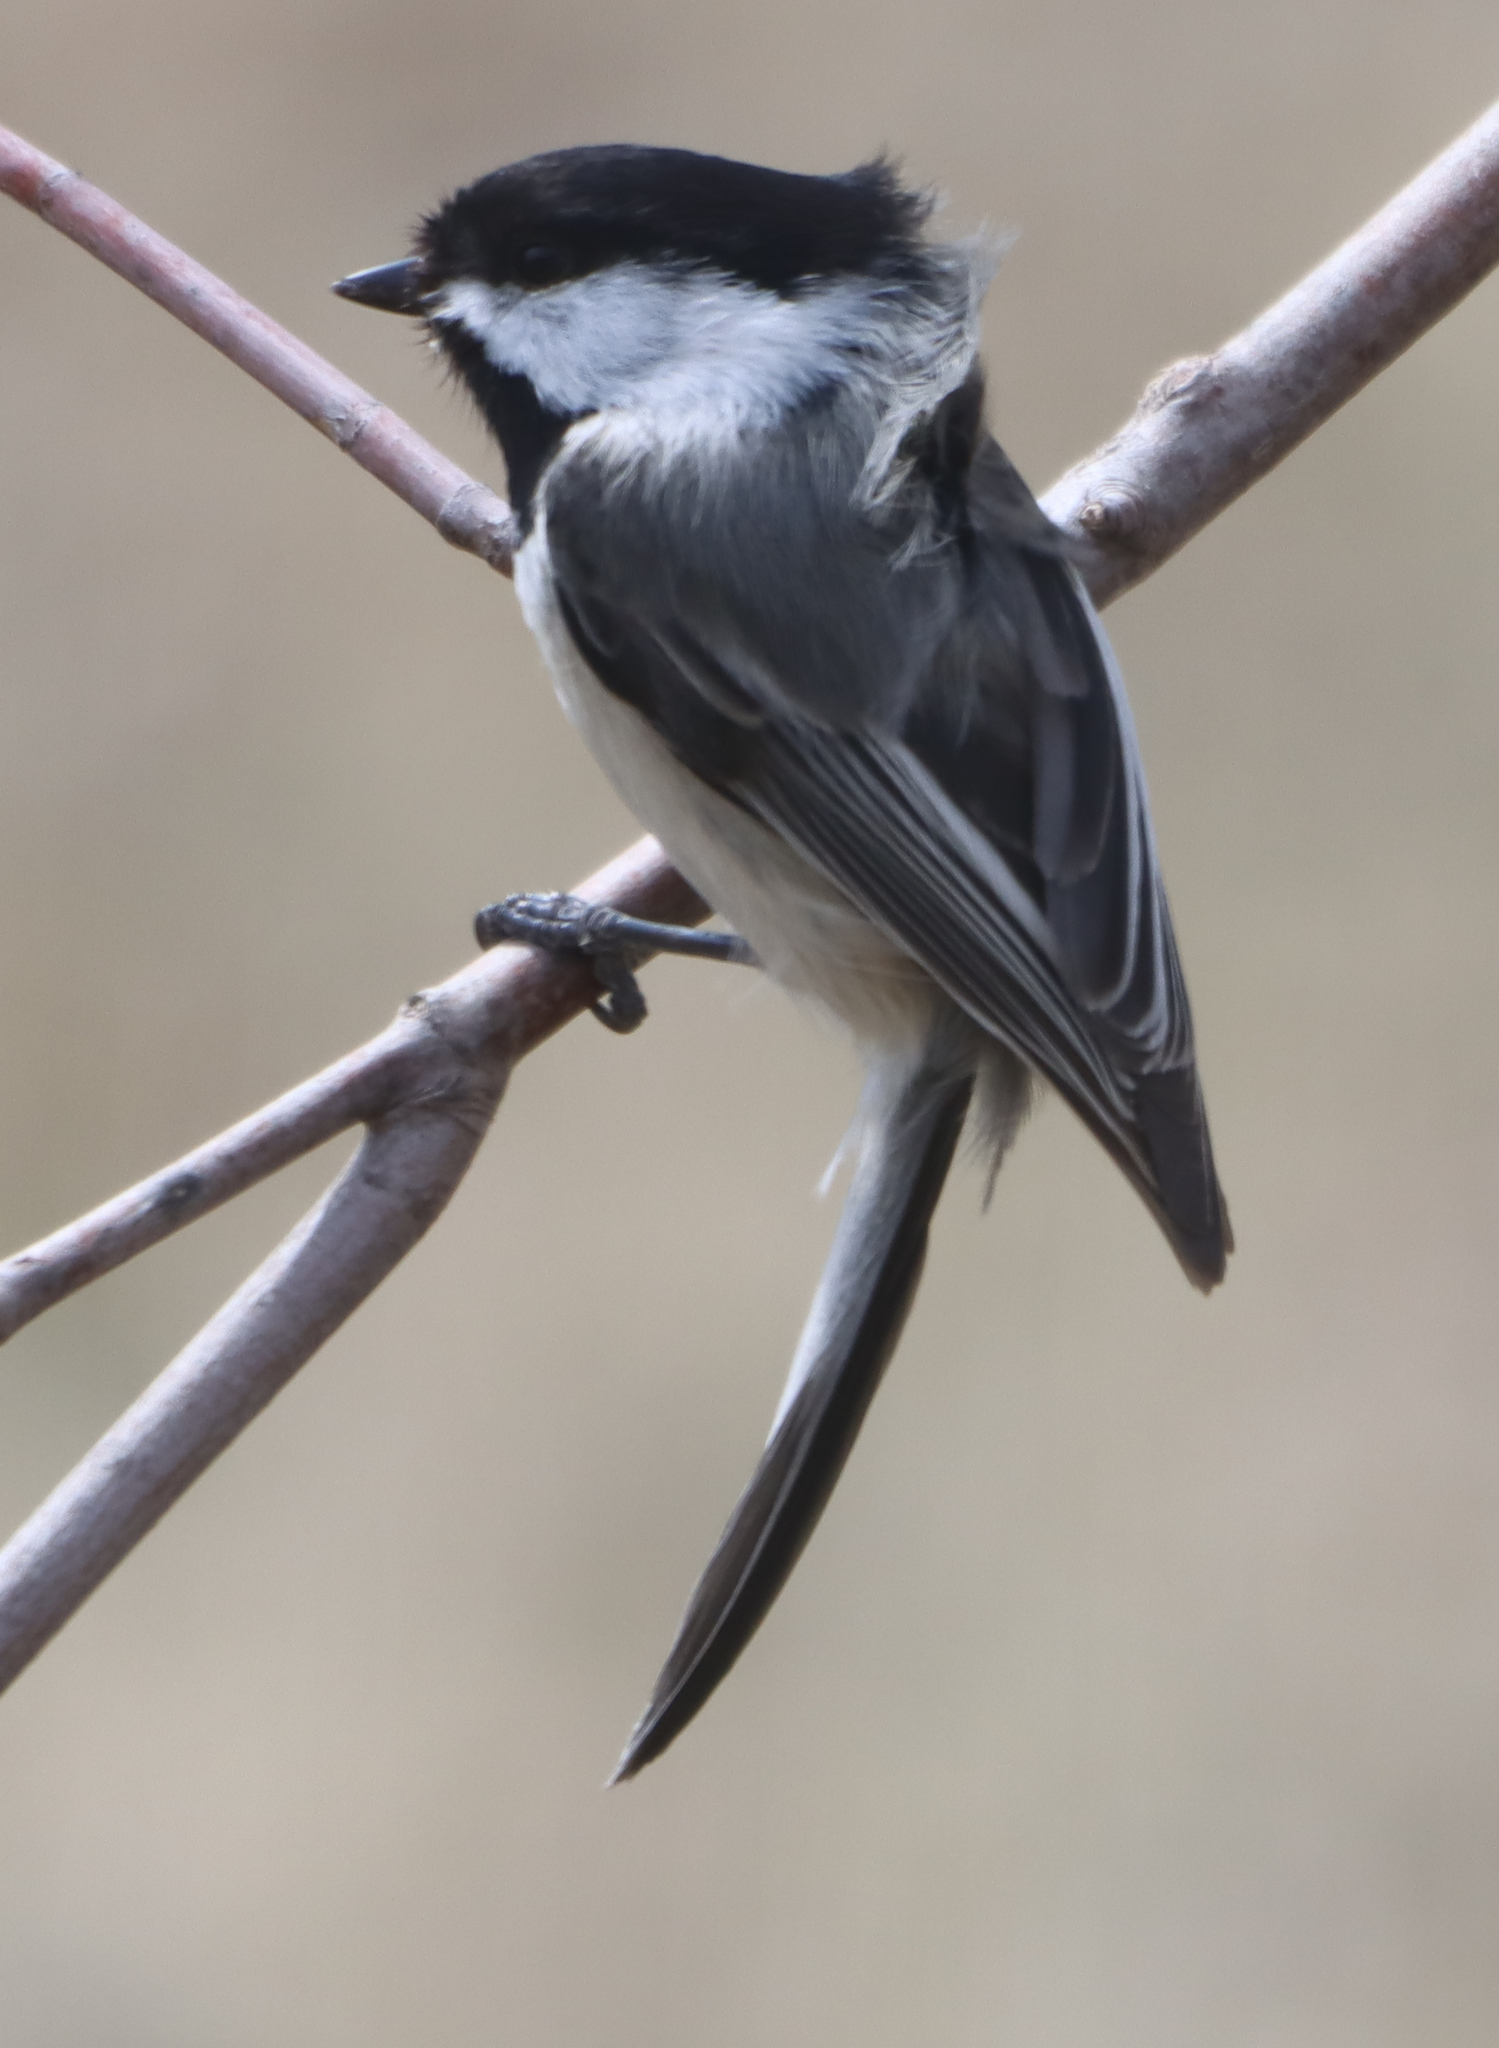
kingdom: Animalia
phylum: Chordata
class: Aves
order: Passeriformes
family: Paridae
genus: Poecile
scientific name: Poecile atricapillus
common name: Black-capped chickadee
